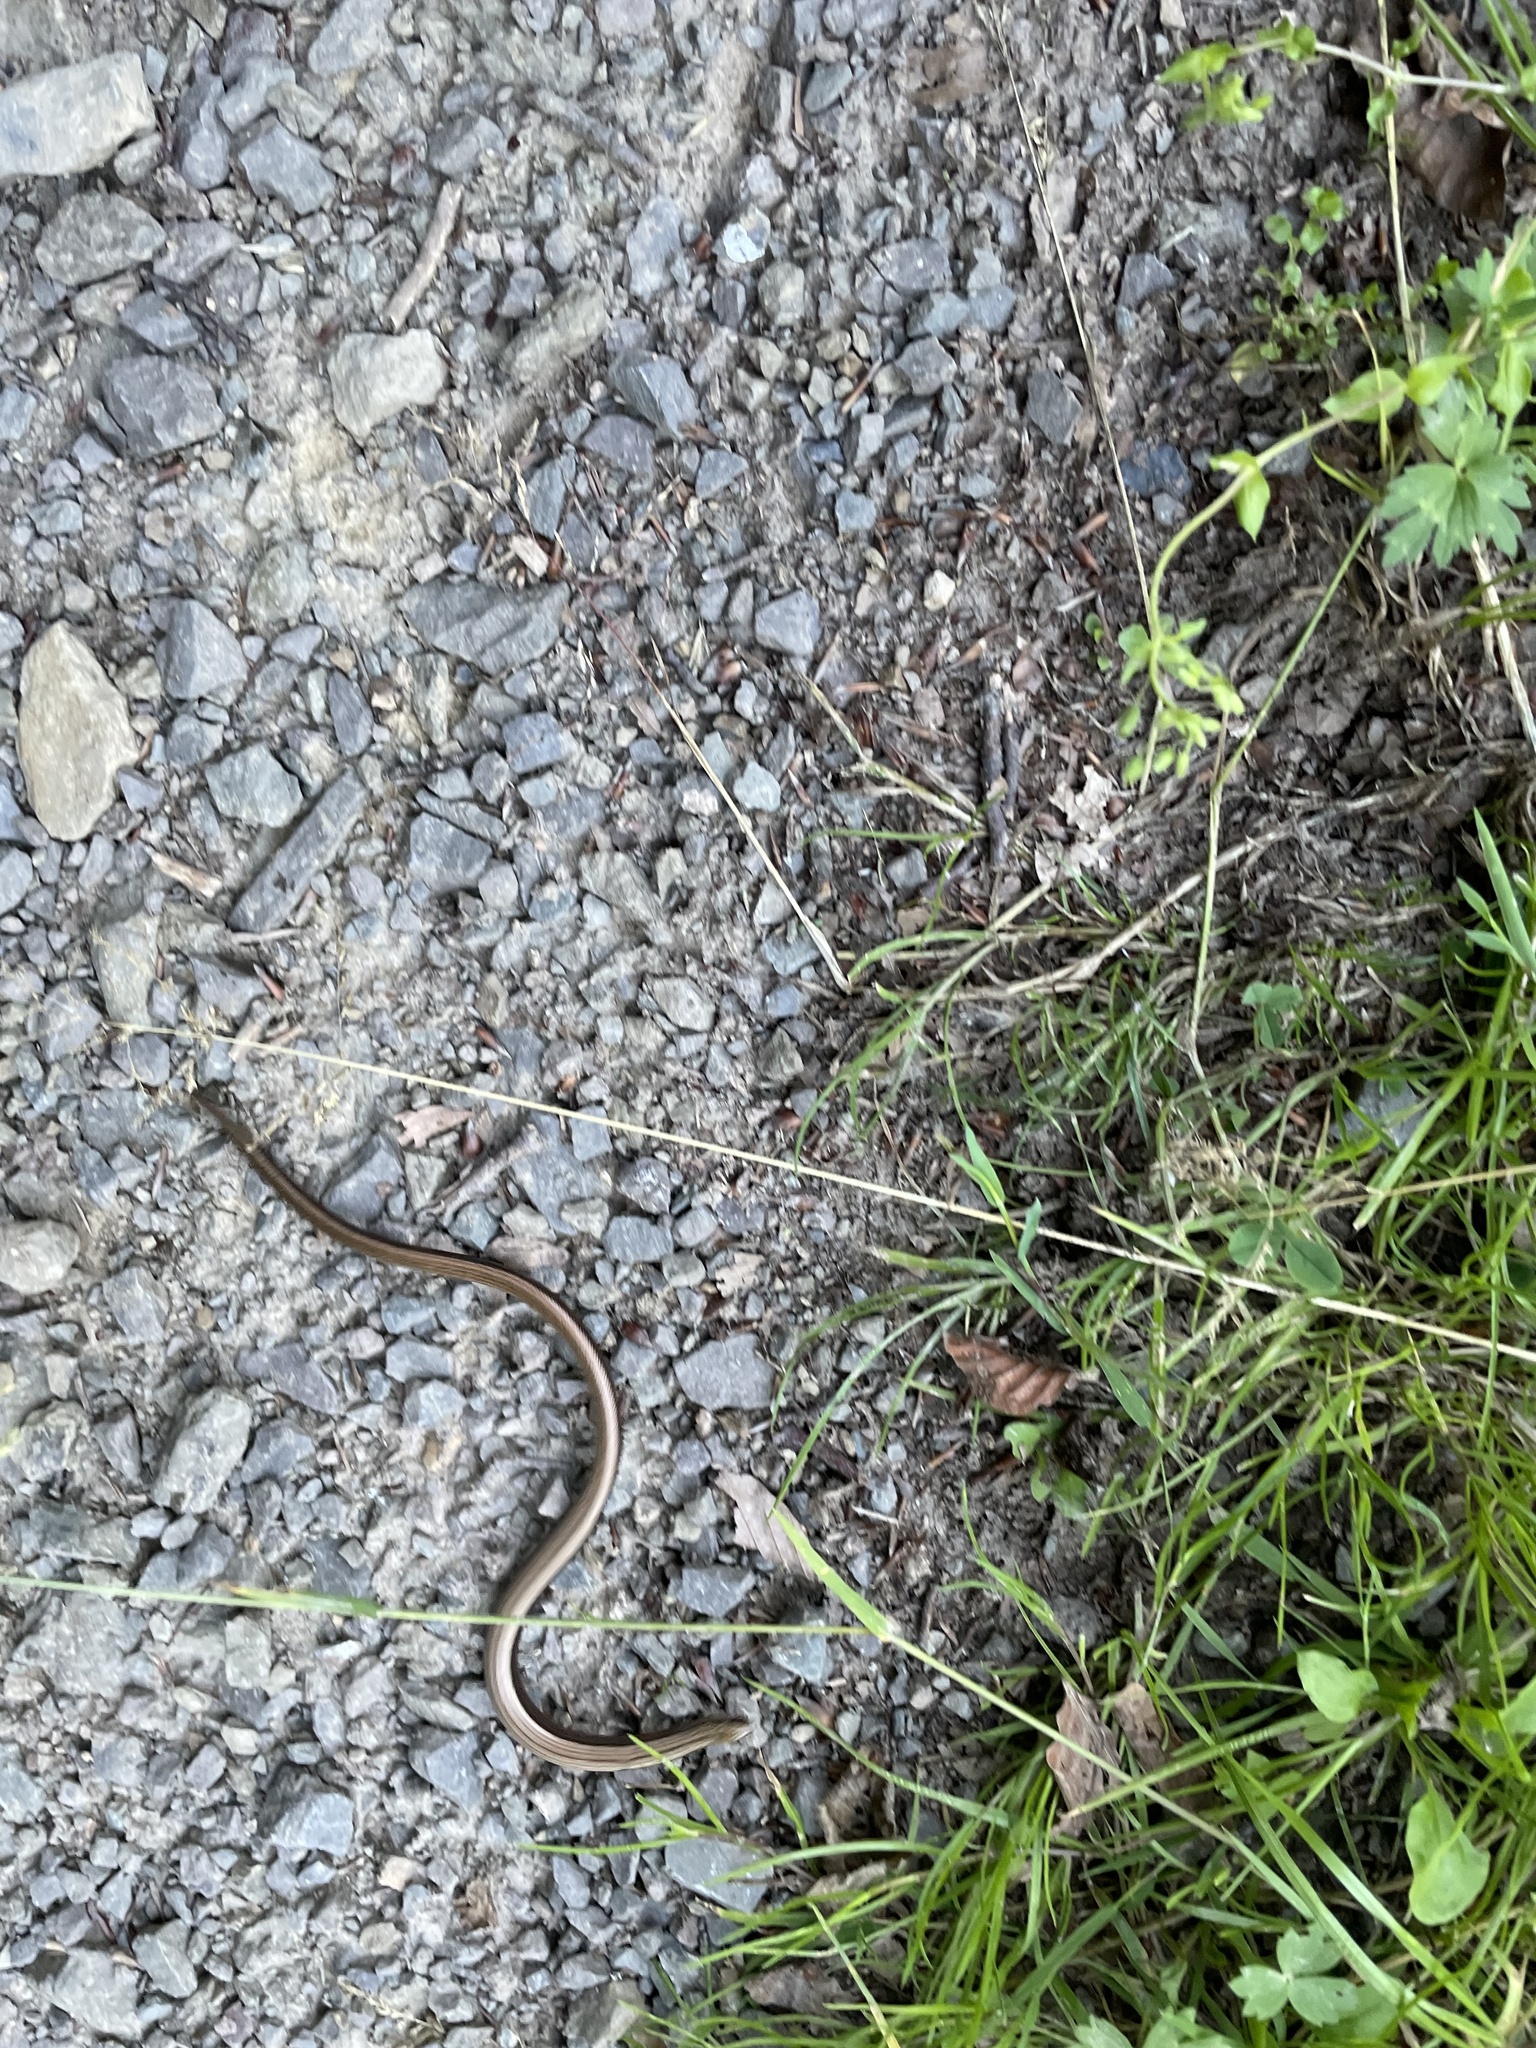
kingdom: Animalia
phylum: Chordata
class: Squamata
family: Anguidae
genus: Anguis
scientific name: Anguis fragilis
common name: Slow worm
